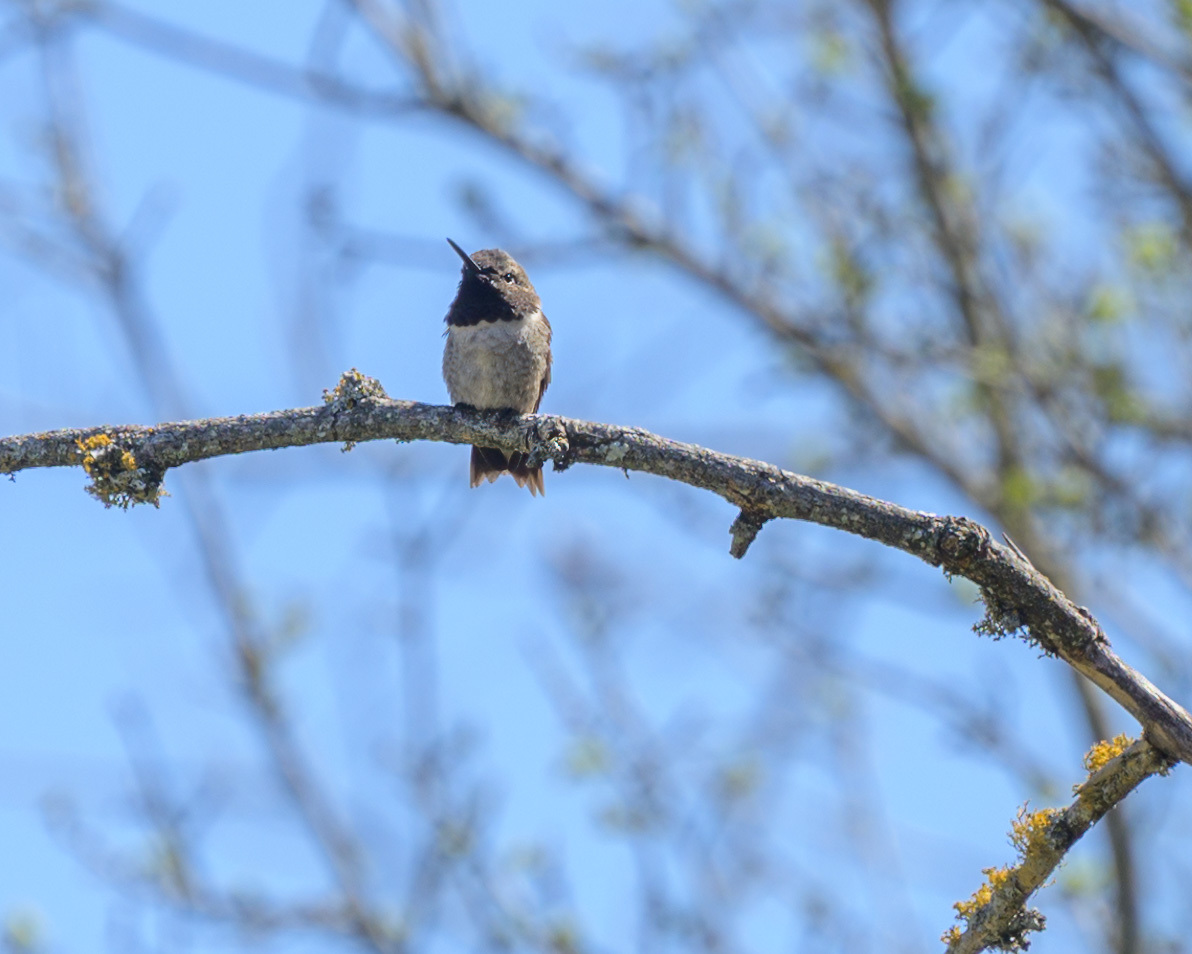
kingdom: Animalia
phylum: Chordata
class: Aves
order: Apodiformes
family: Trochilidae
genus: Archilochus
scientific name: Archilochus alexandri
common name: Black-chinned hummingbird
